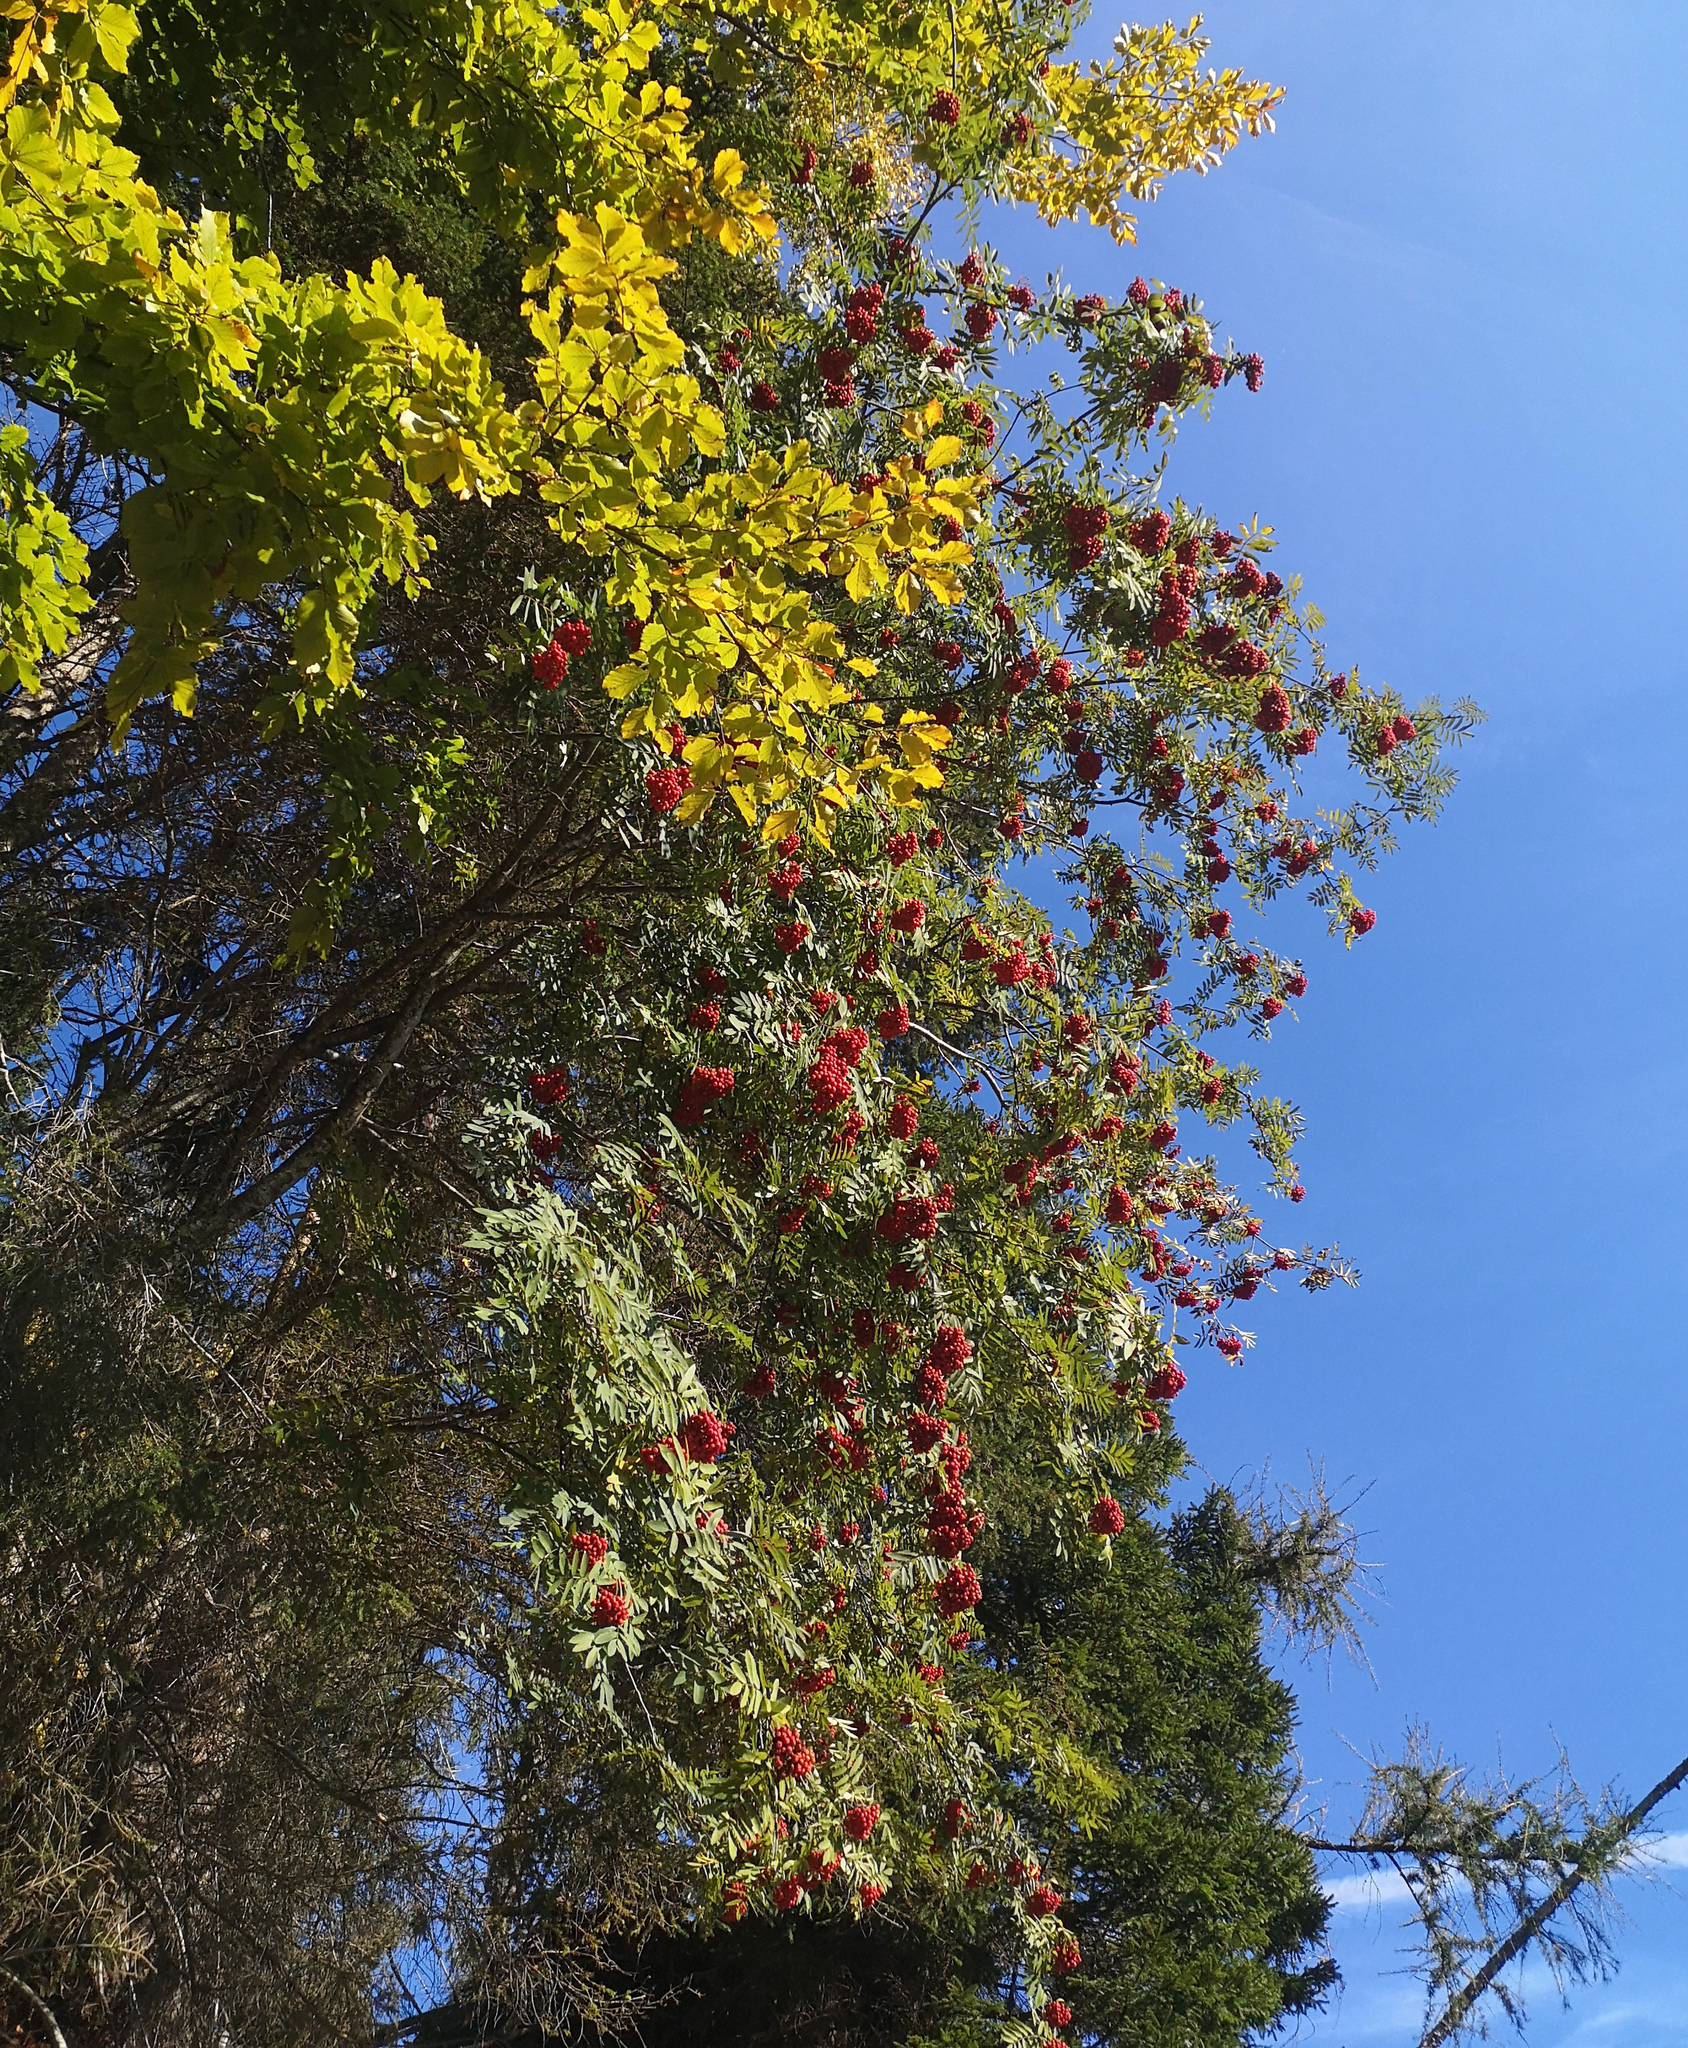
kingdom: Plantae
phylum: Tracheophyta
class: Magnoliopsida
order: Rosales
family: Rosaceae
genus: Sorbus
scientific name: Sorbus aucuparia
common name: Rowan
